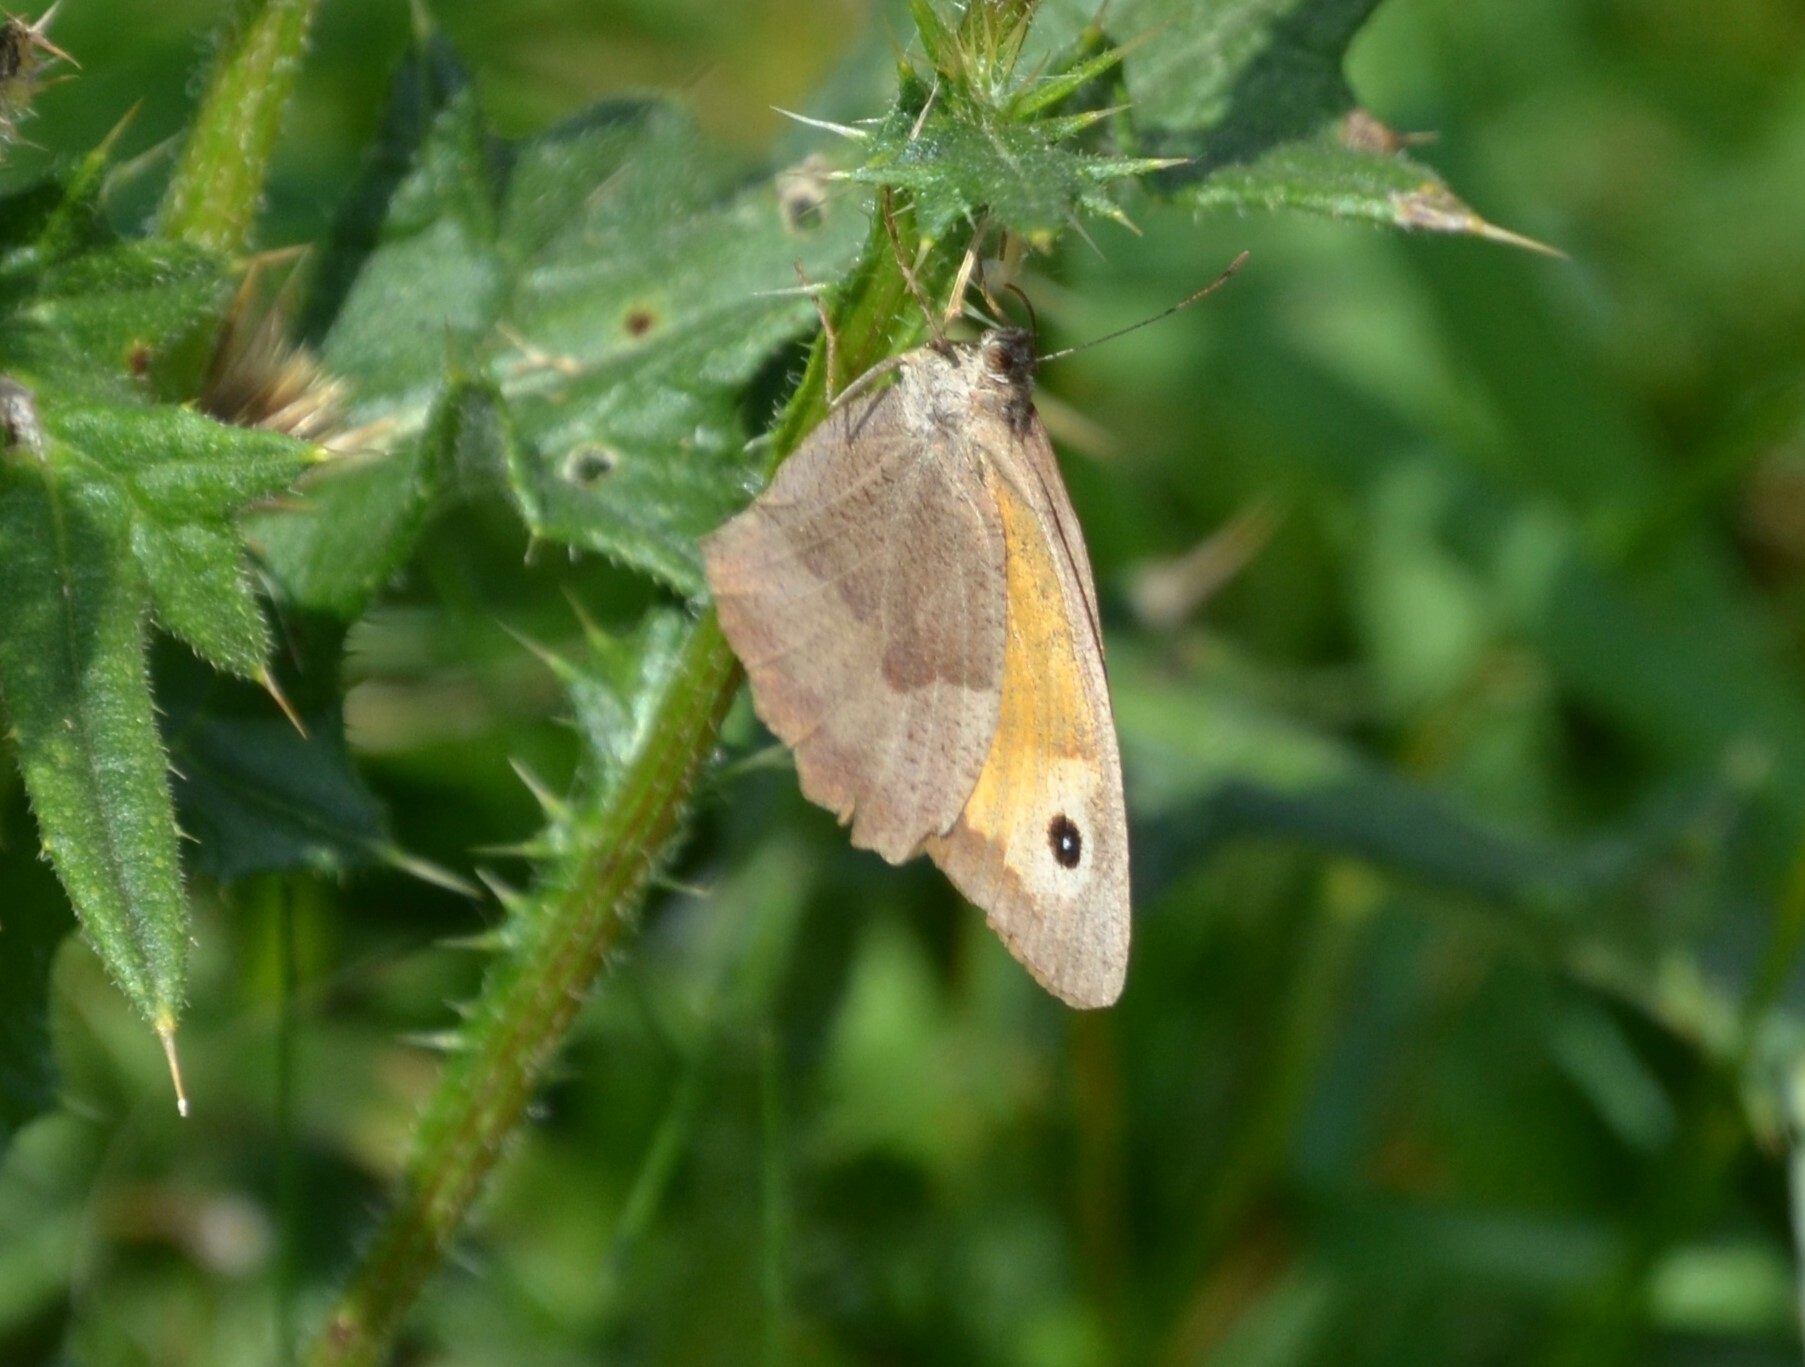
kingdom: Animalia
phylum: Arthropoda
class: Insecta
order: Lepidoptera
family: Nymphalidae
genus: Maniola
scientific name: Maniola jurtina
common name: Meadow brown
